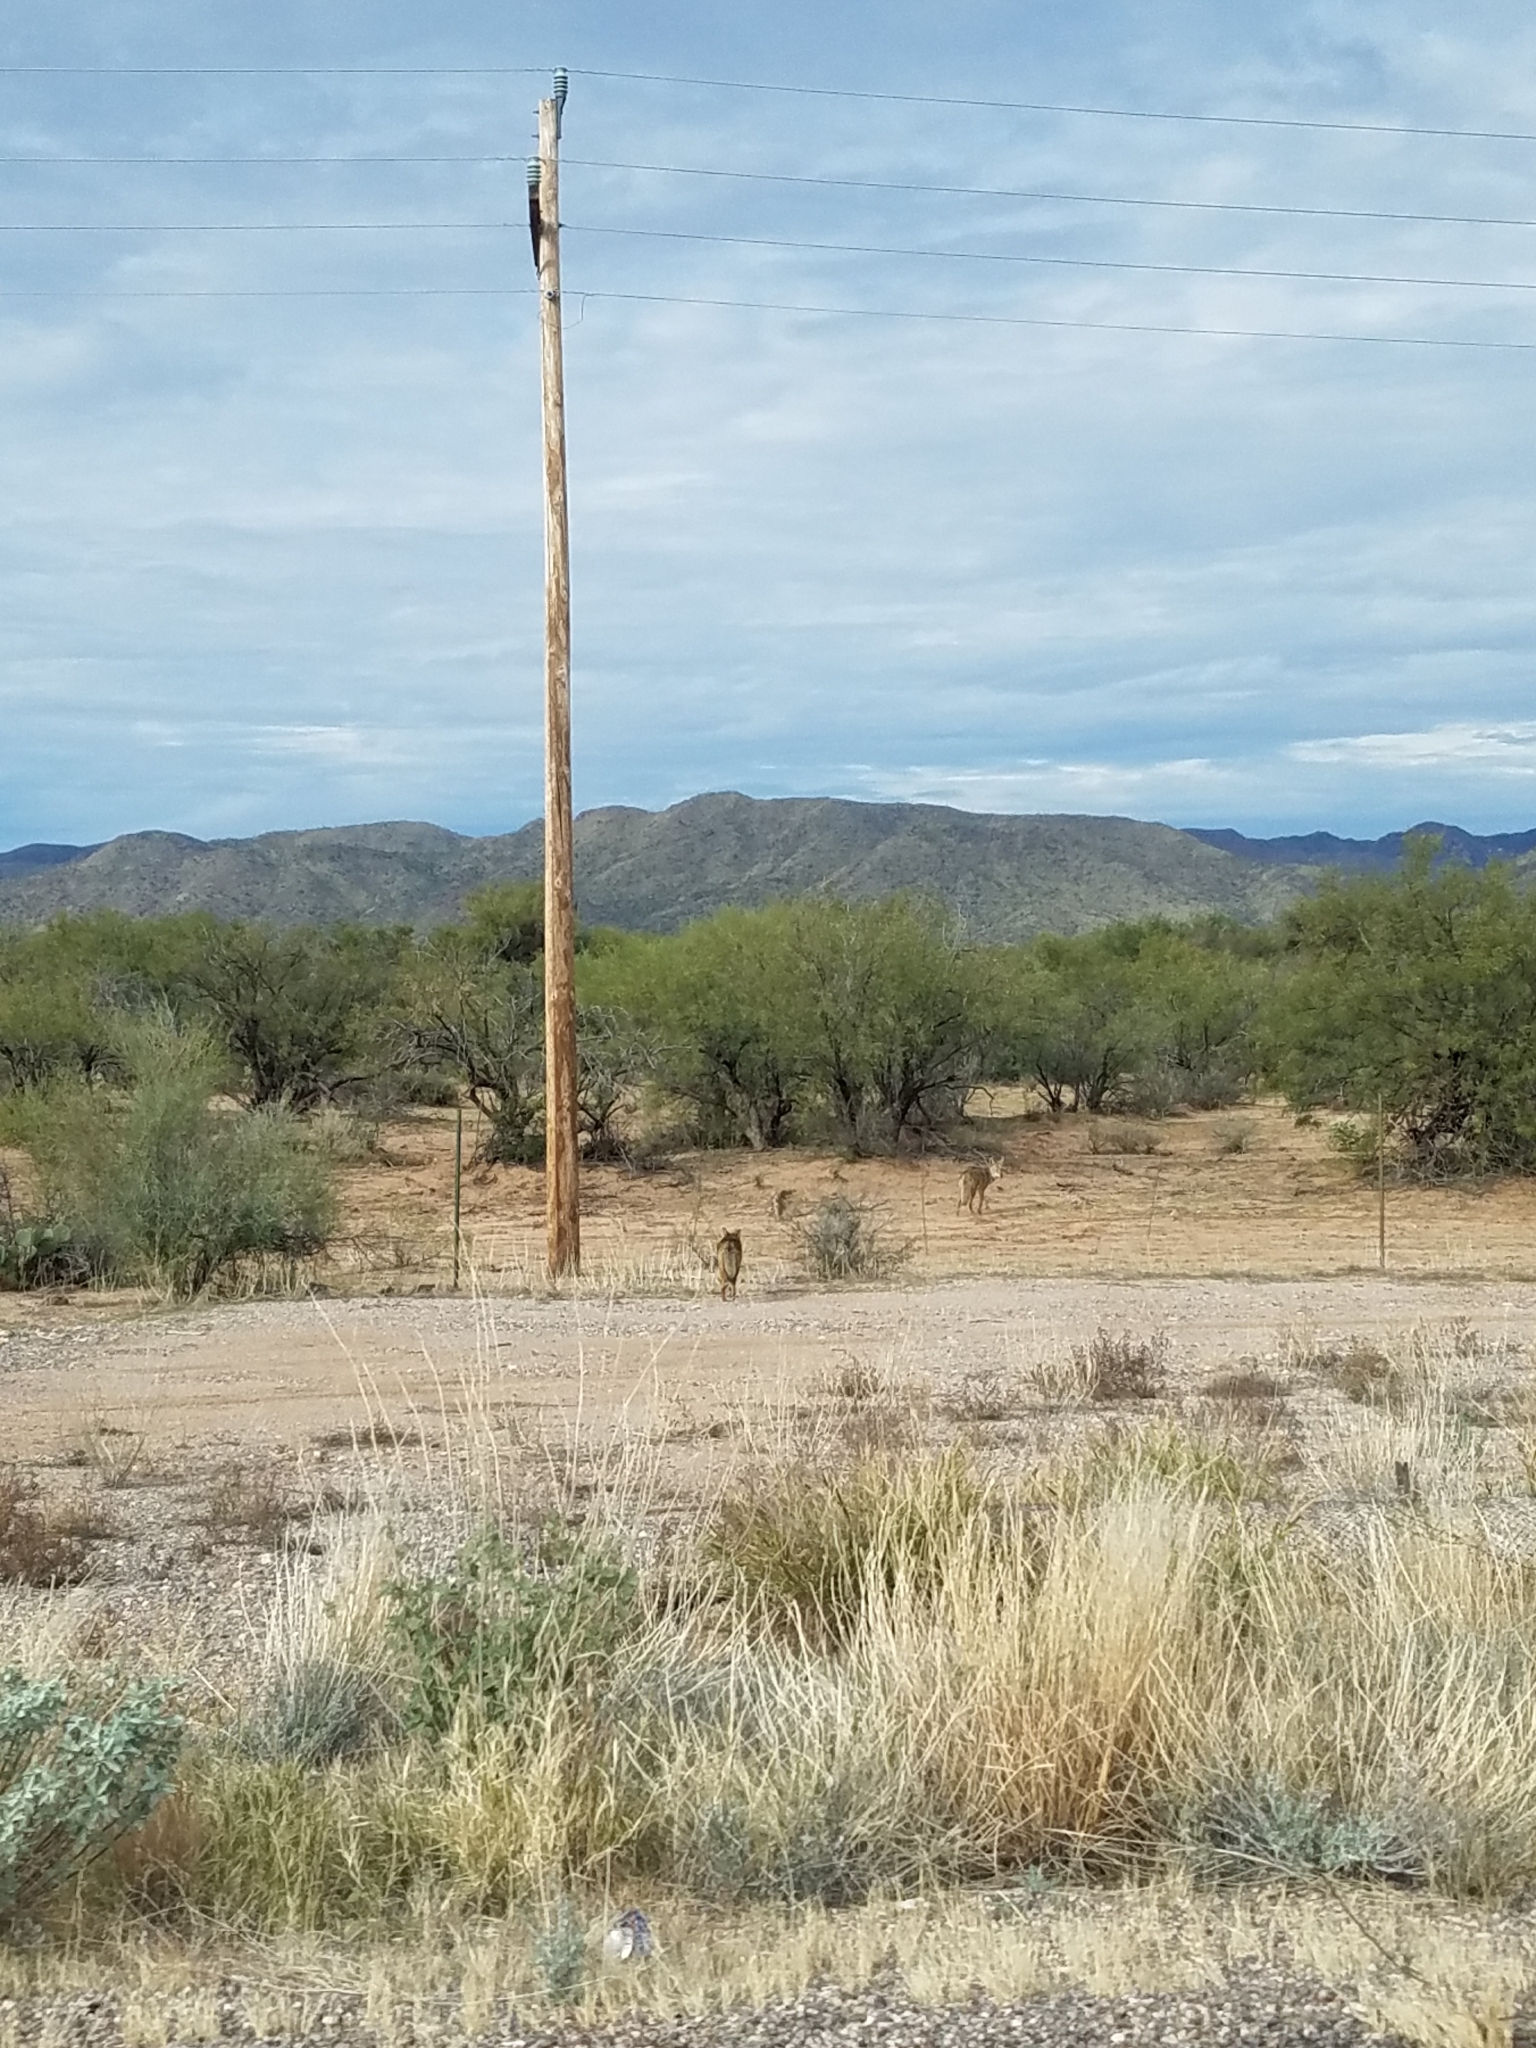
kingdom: Animalia
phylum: Chordata
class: Mammalia
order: Carnivora
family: Canidae
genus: Canis
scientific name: Canis latrans
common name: Coyote
